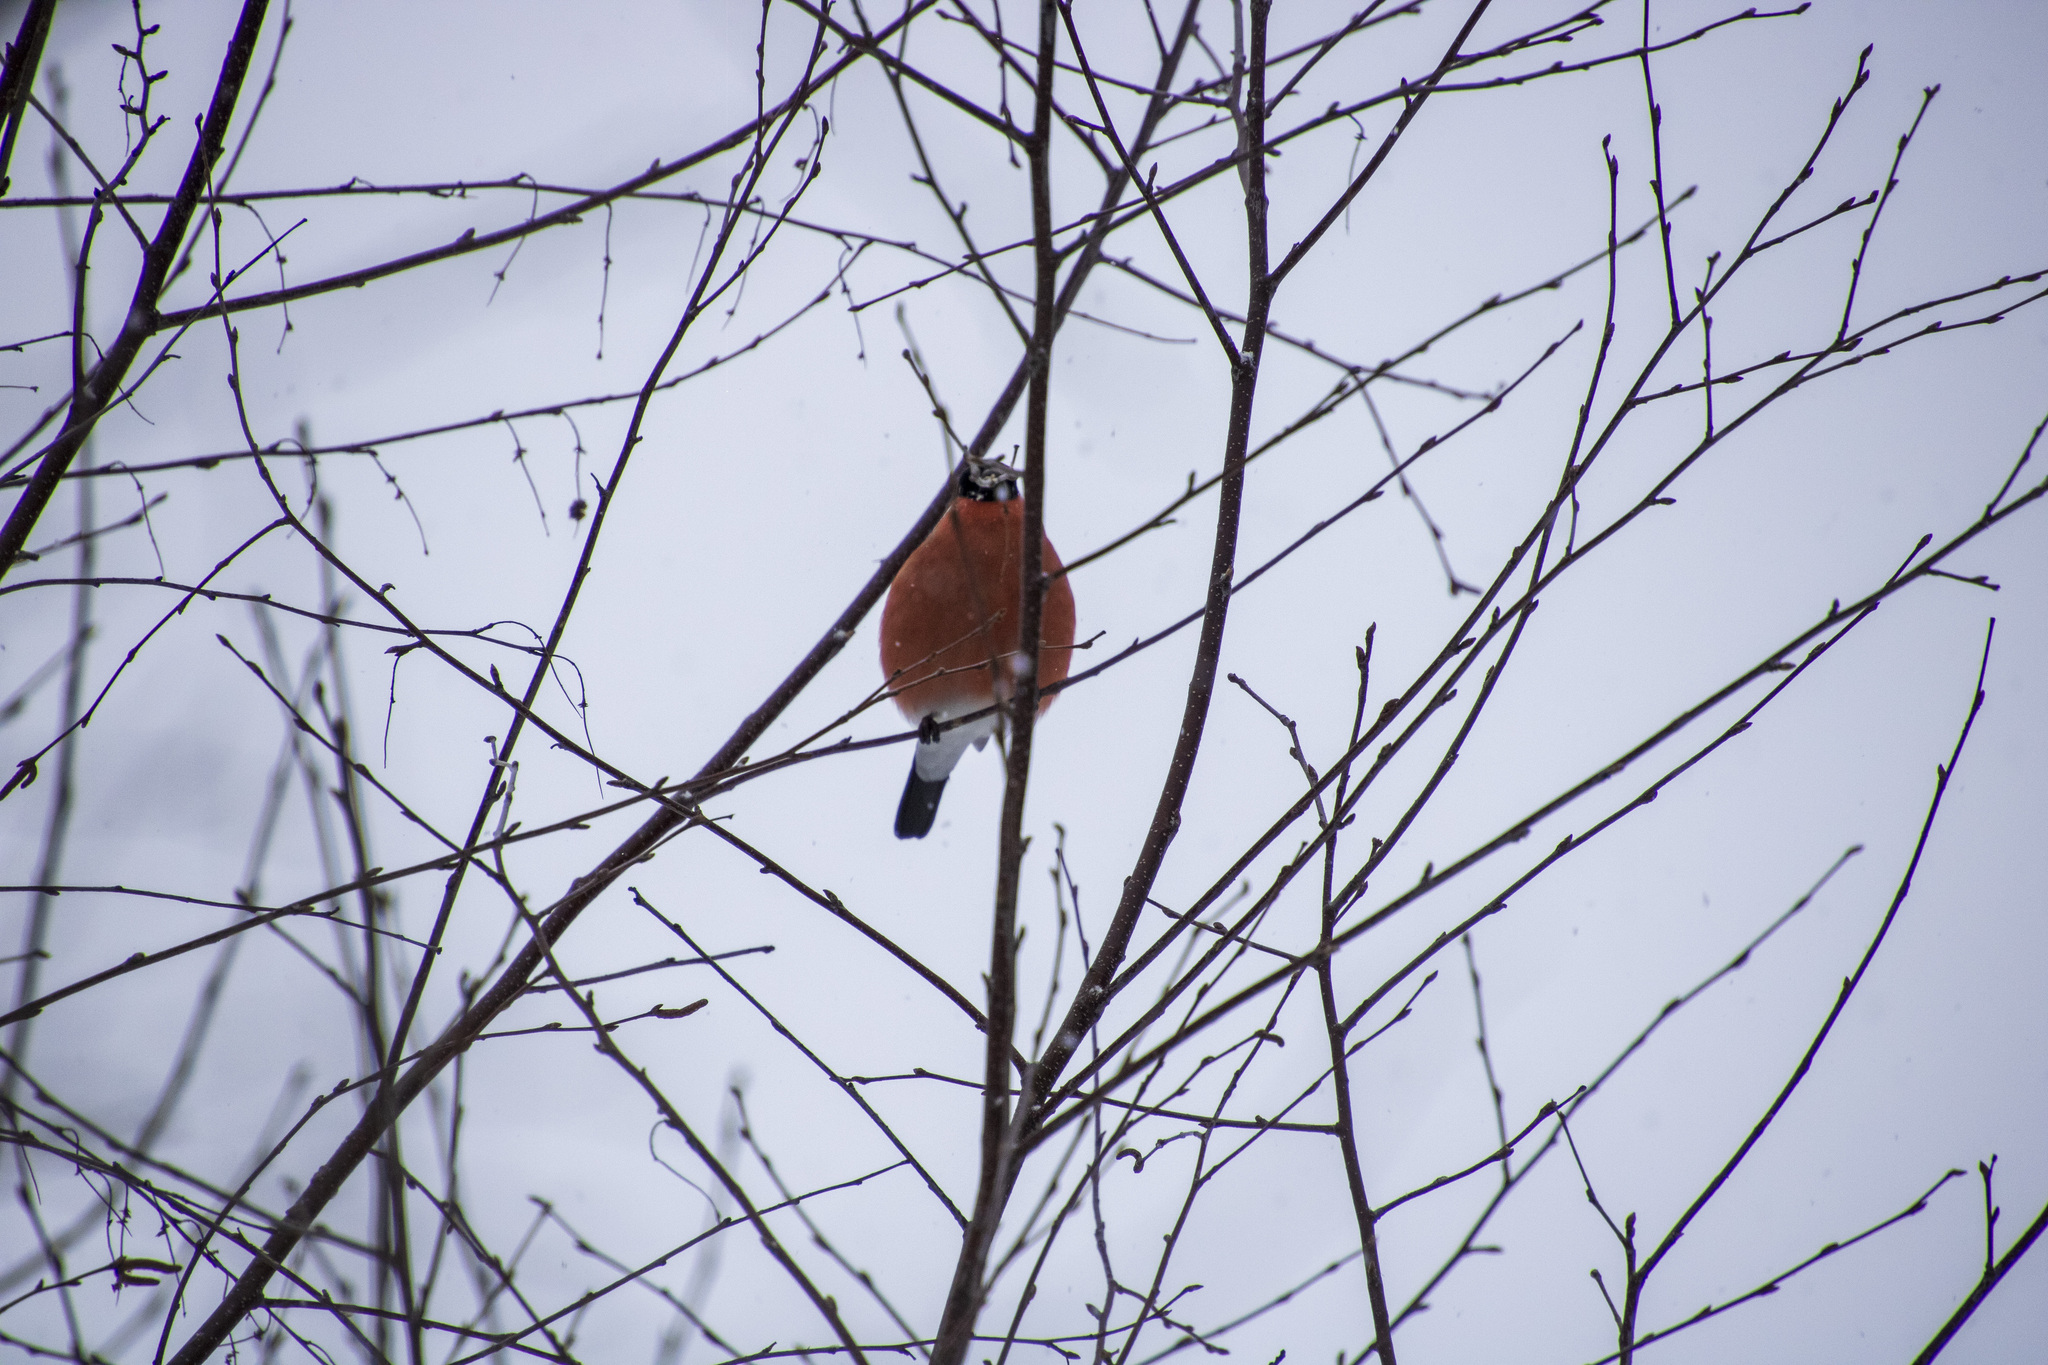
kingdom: Animalia
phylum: Chordata
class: Aves
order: Passeriformes
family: Fringillidae
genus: Pyrrhula
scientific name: Pyrrhula pyrrhula
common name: Eurasian bullfinch
